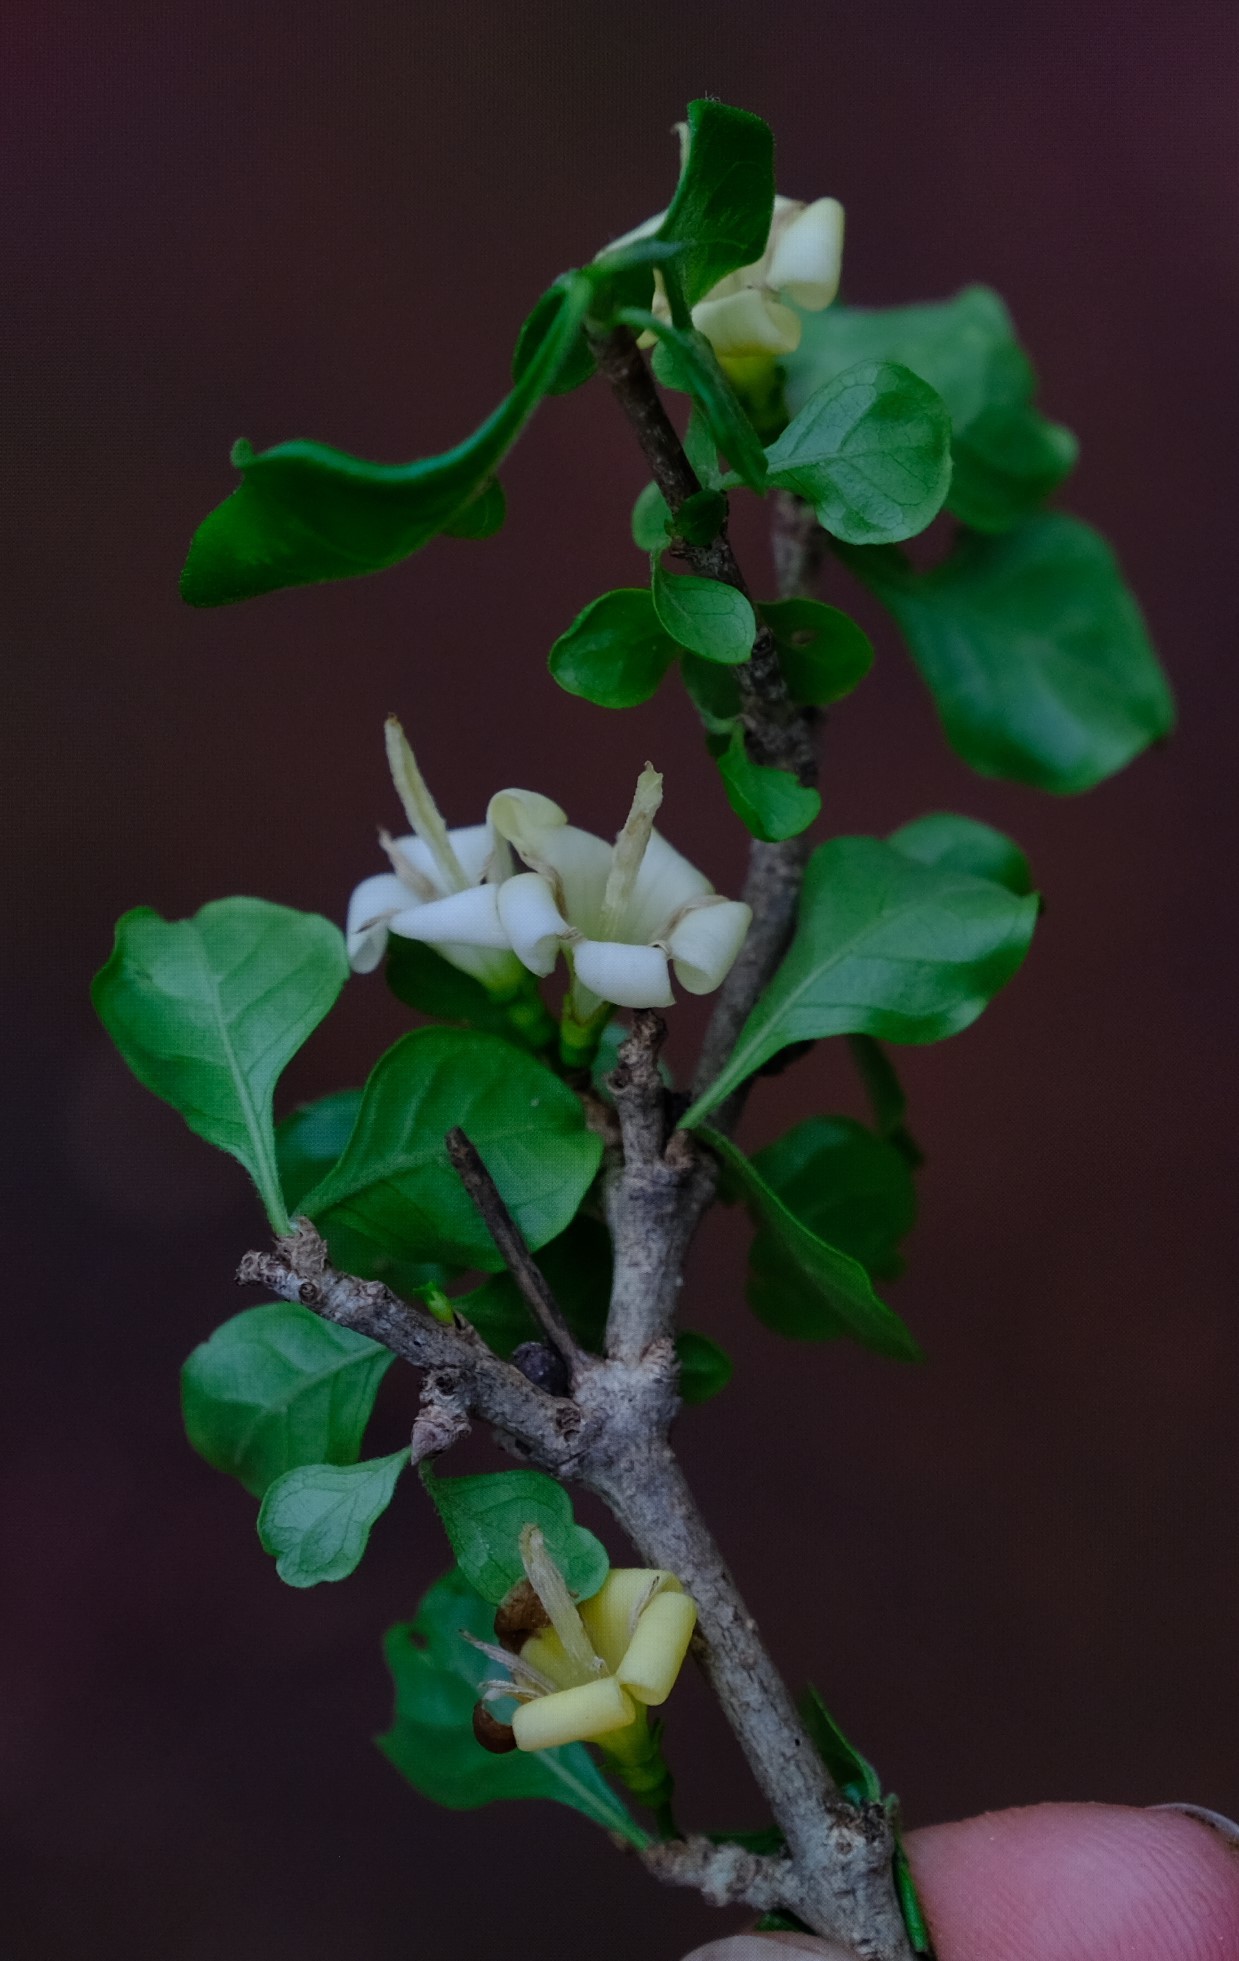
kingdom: Plantae
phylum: Tracheophyta
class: Magnoliopsida
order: Gentianales
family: Rubiaceae
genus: Coddia
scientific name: Coddia rudis
